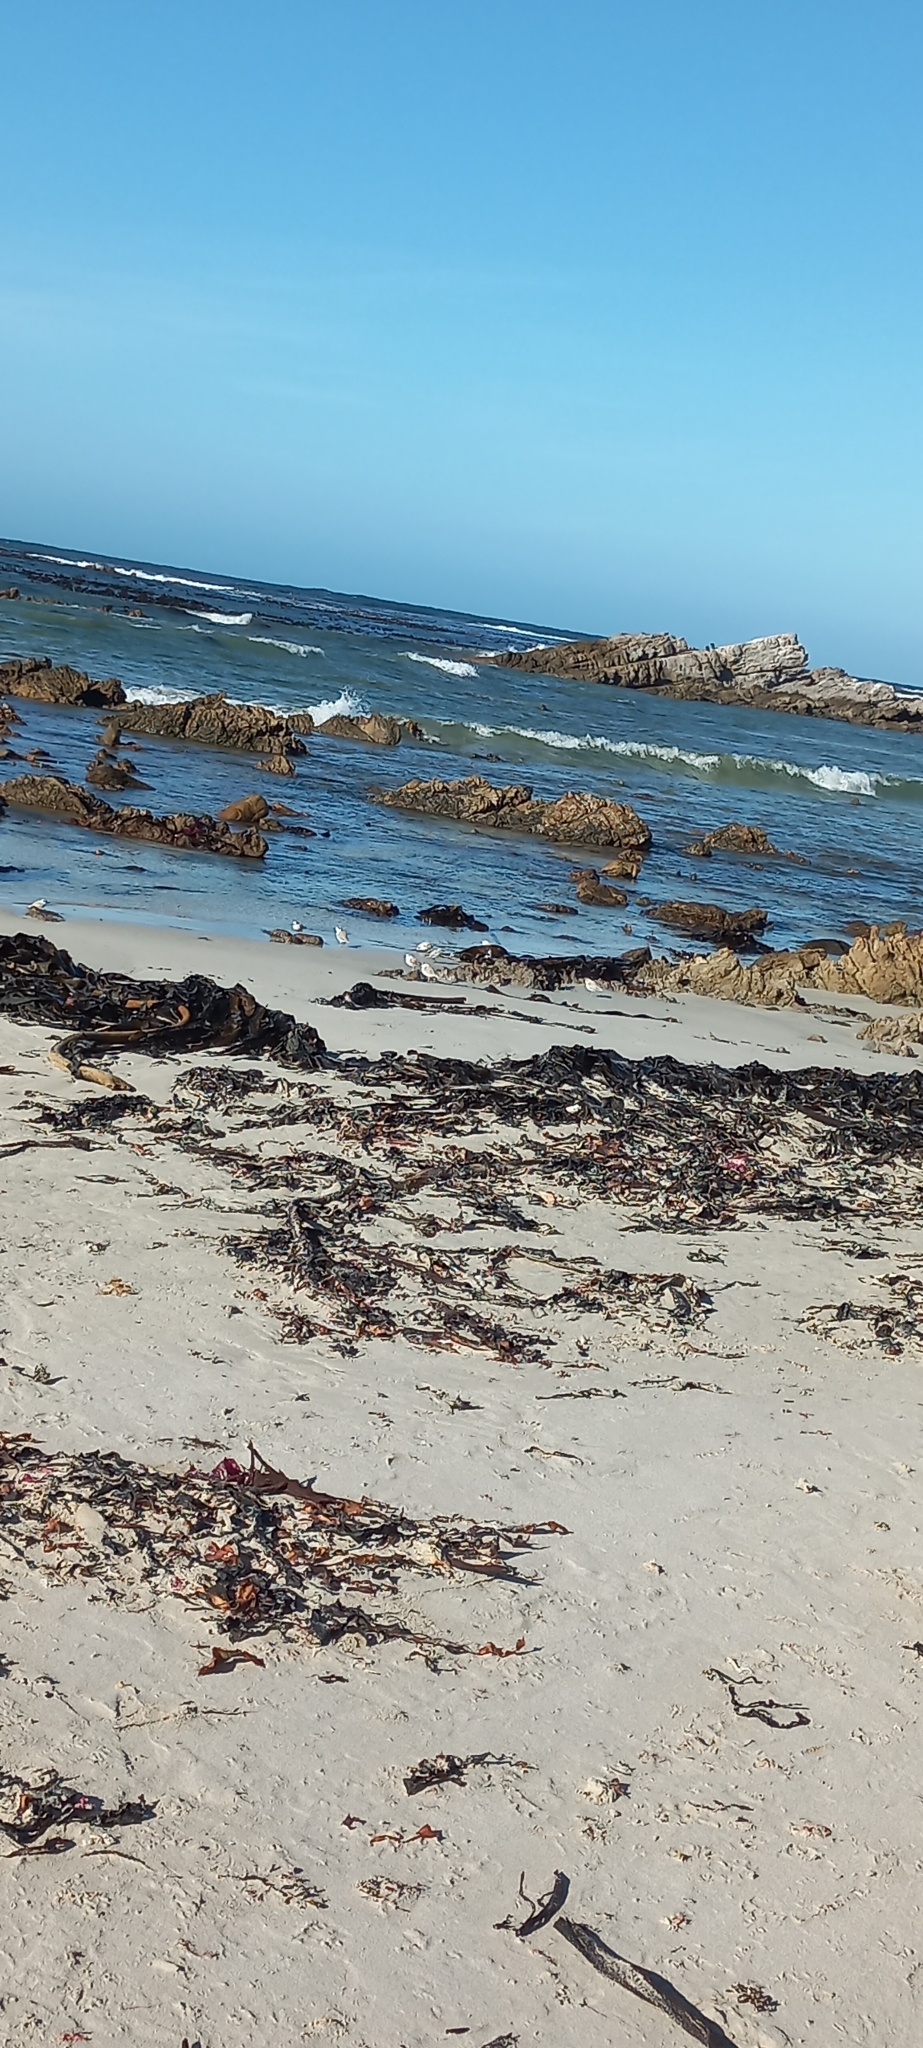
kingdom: Animalia
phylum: Chordata
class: Aves
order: Charadriiformes
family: Charadriidae
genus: Anarhynchus
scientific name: Anarhynchus
